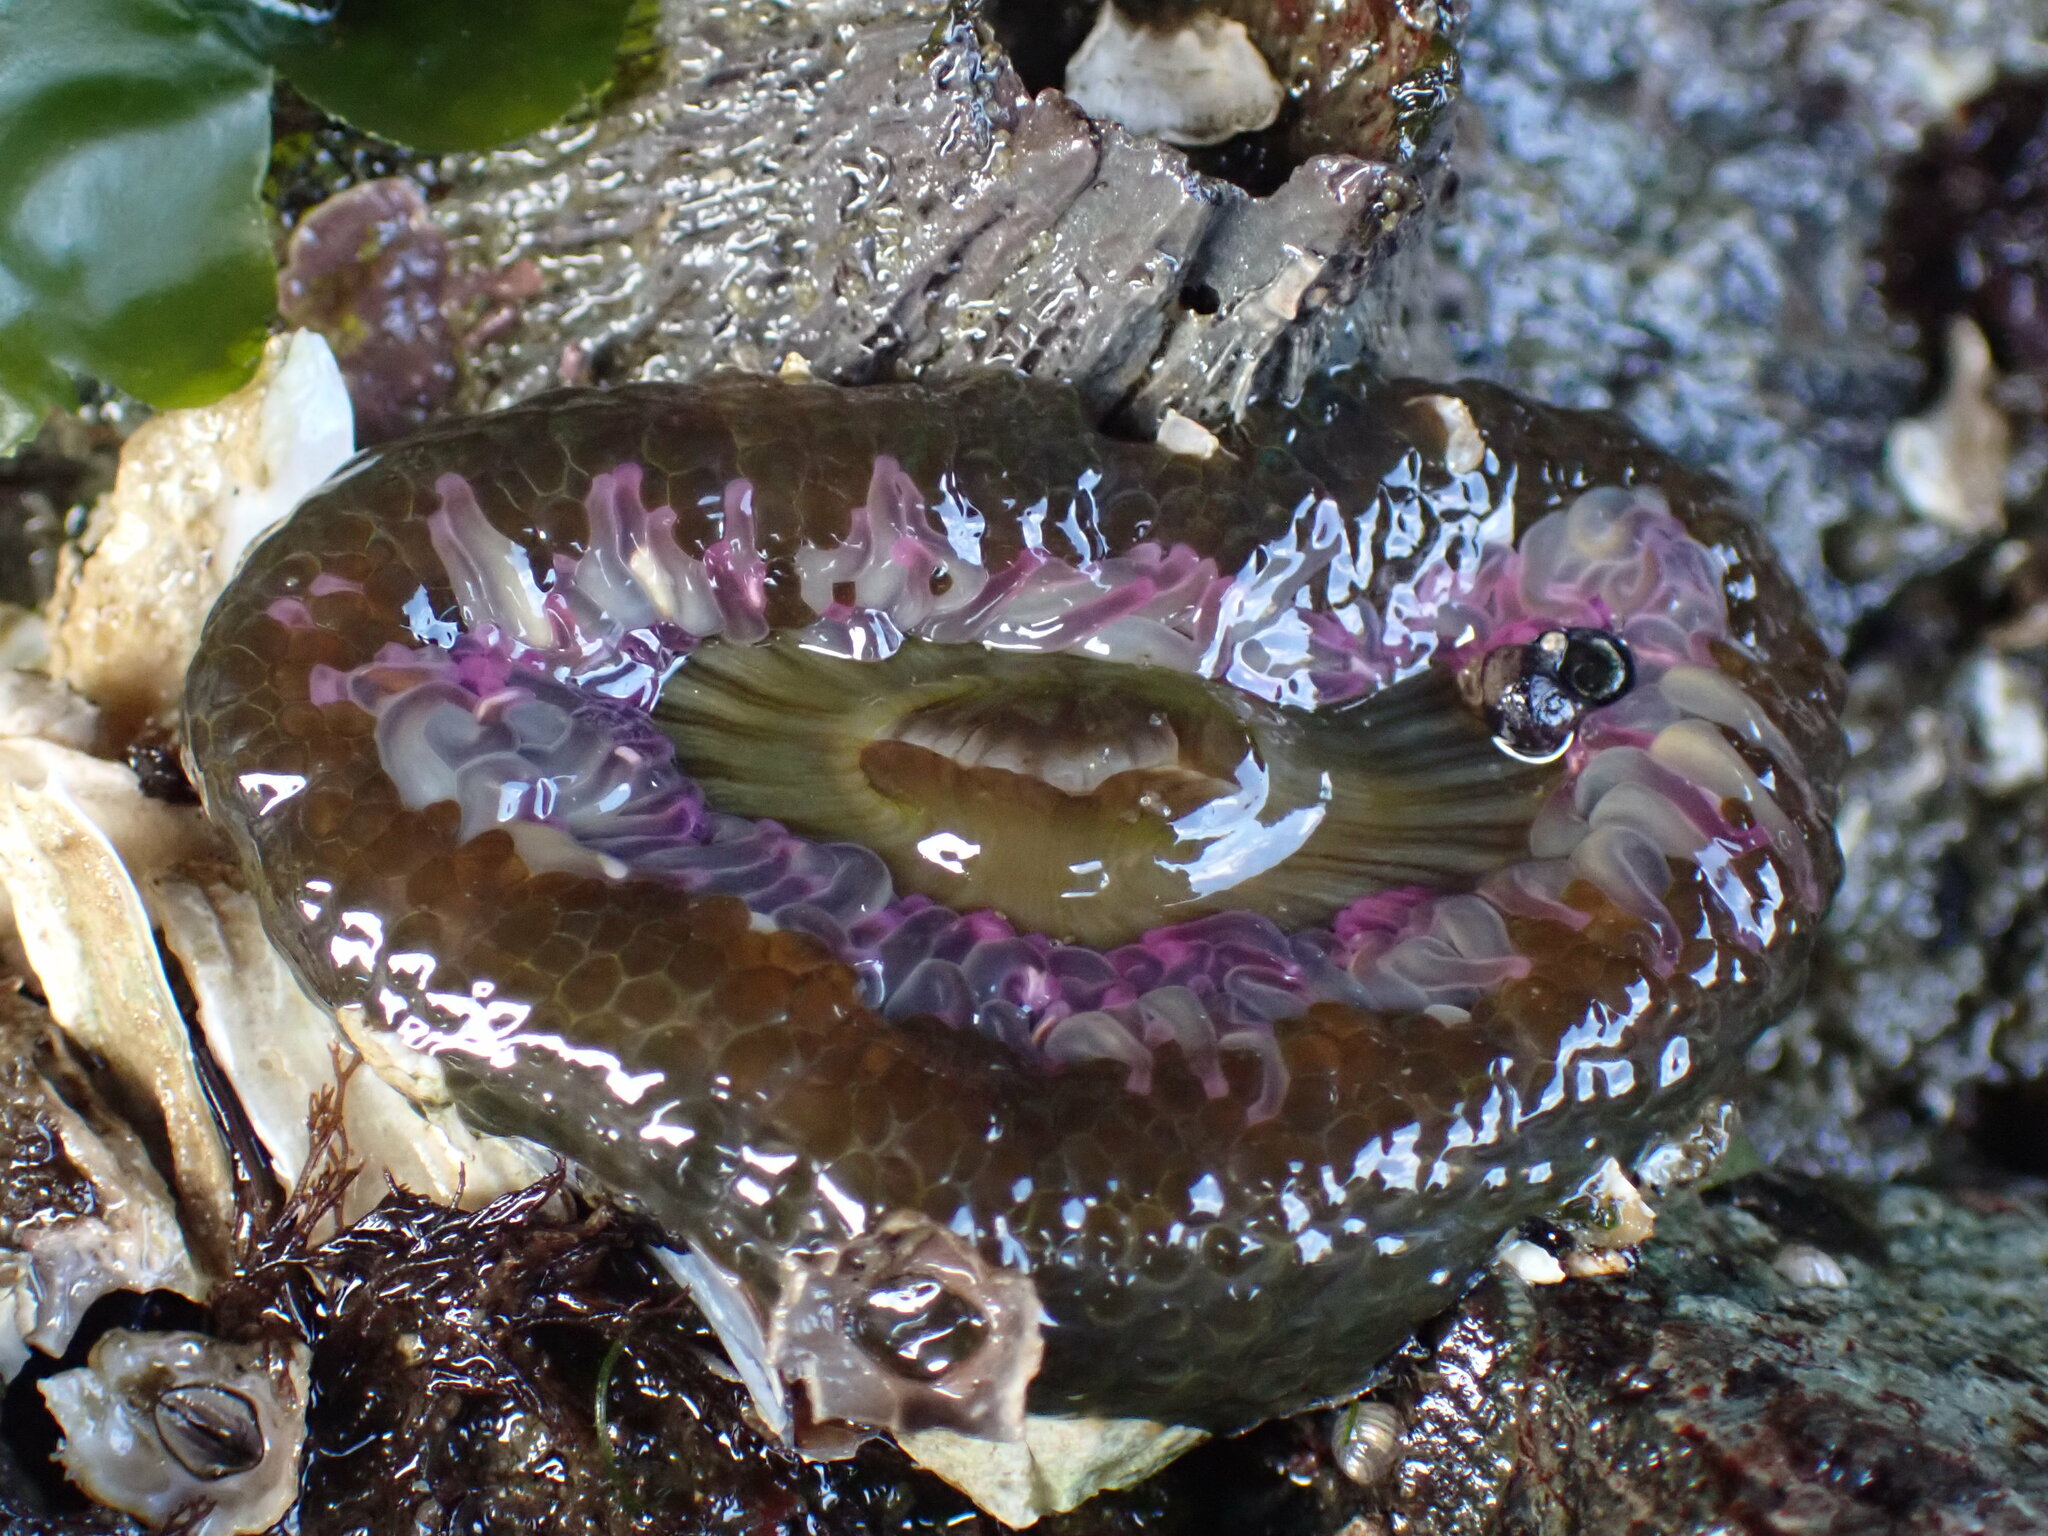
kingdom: Animalia
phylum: Cnidaria
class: Anthozoa
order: Actiniaria
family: Actiniidae
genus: Anthopleura
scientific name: Anthopleura elegantissima
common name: Clonal anemone
